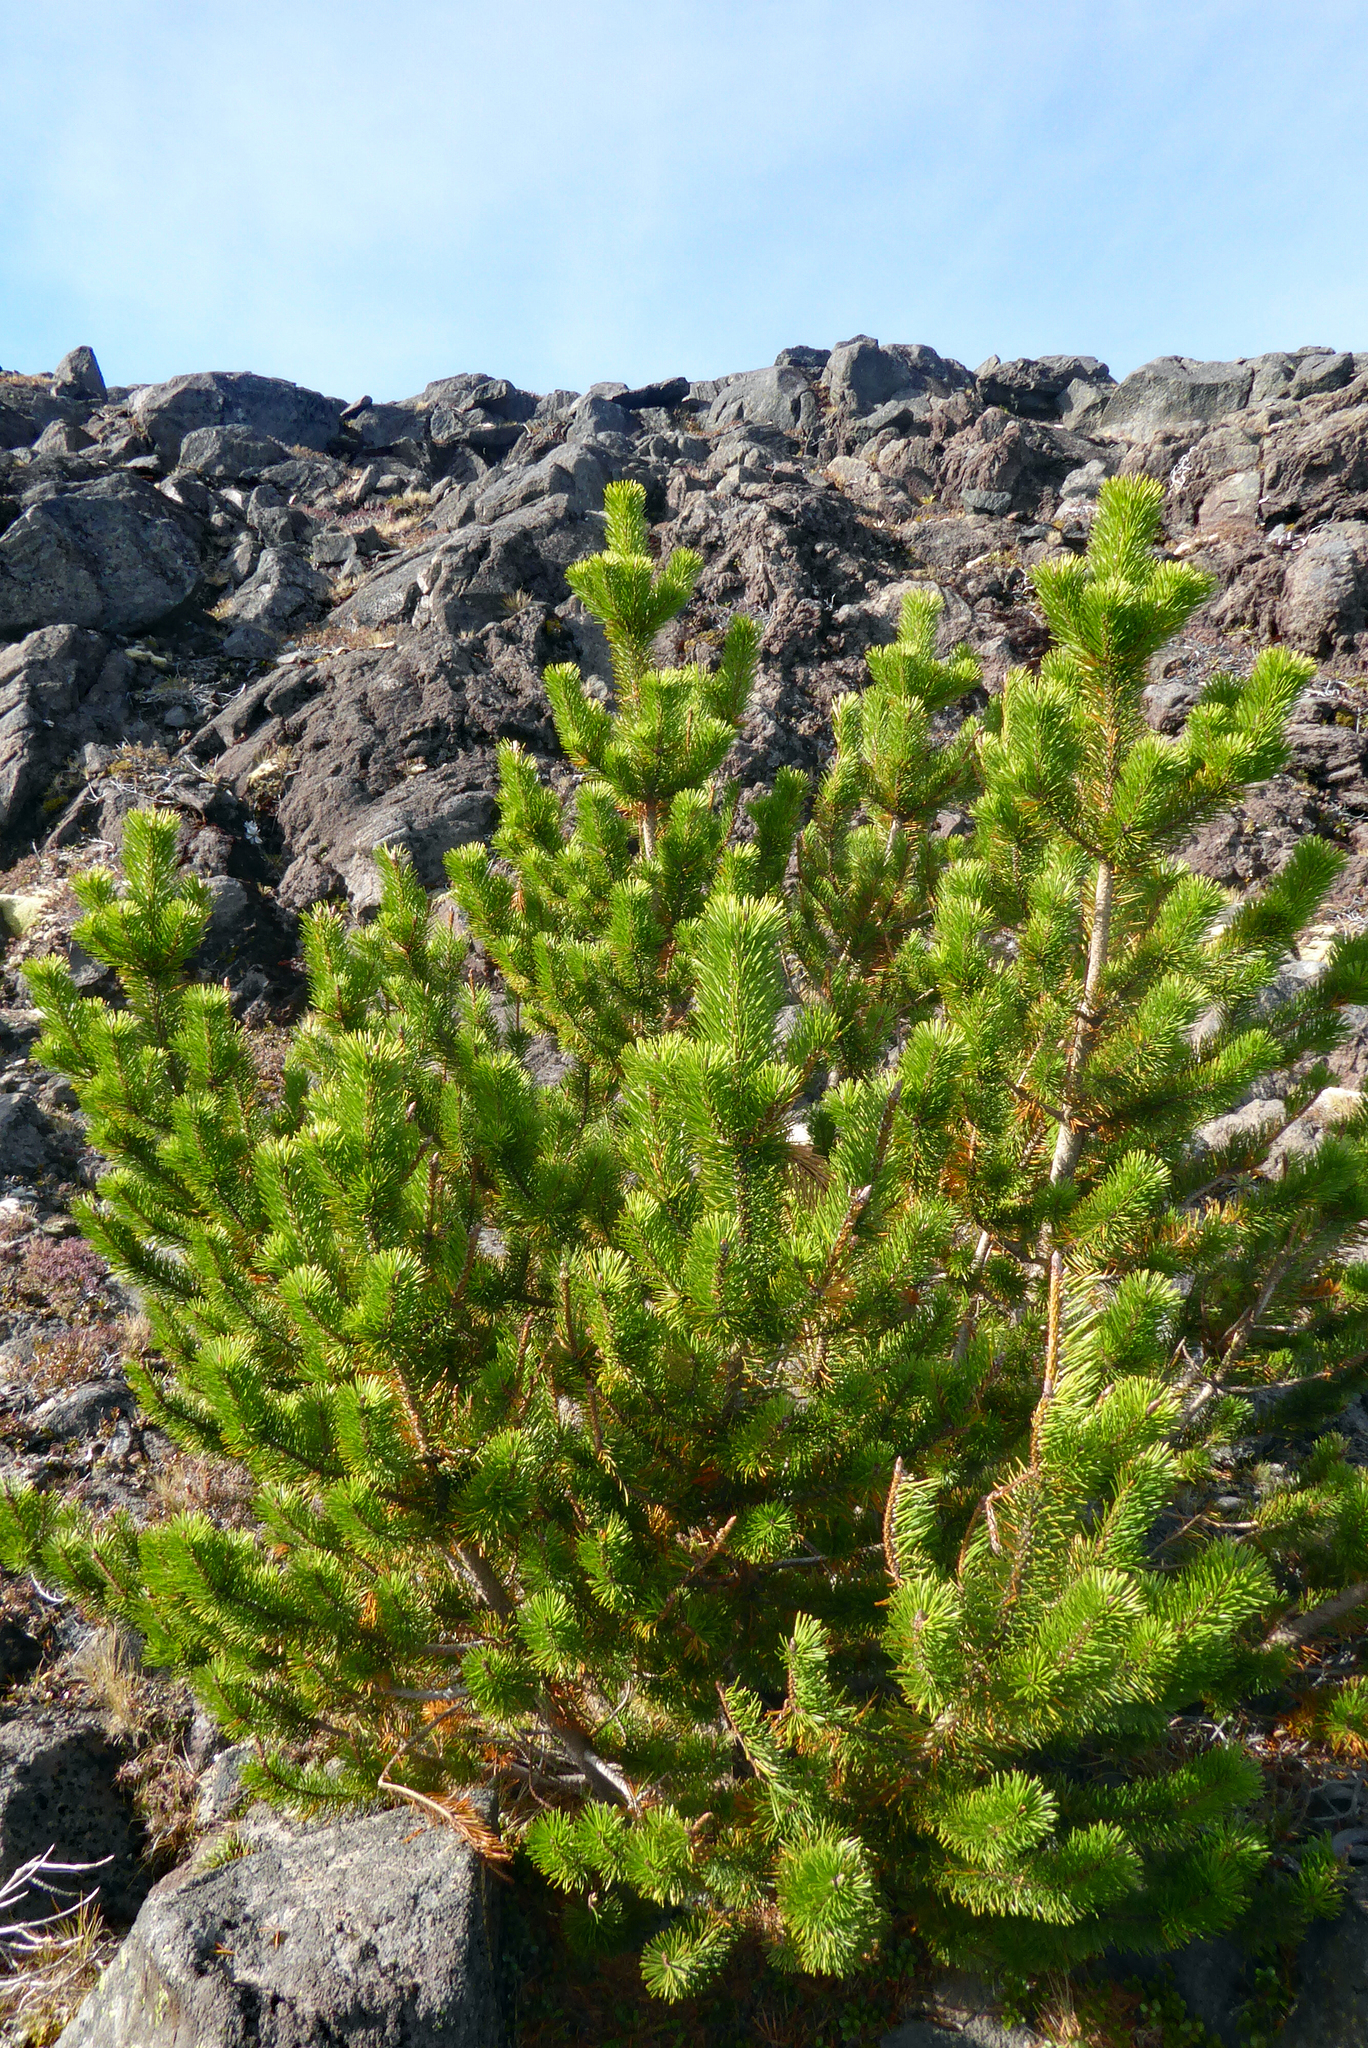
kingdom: Plantae
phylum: Tracheophyta
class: Pinopsida
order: Pinales
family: Pinaceae
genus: Pinus
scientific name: Pinus contorta
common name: Lodgepole pine
